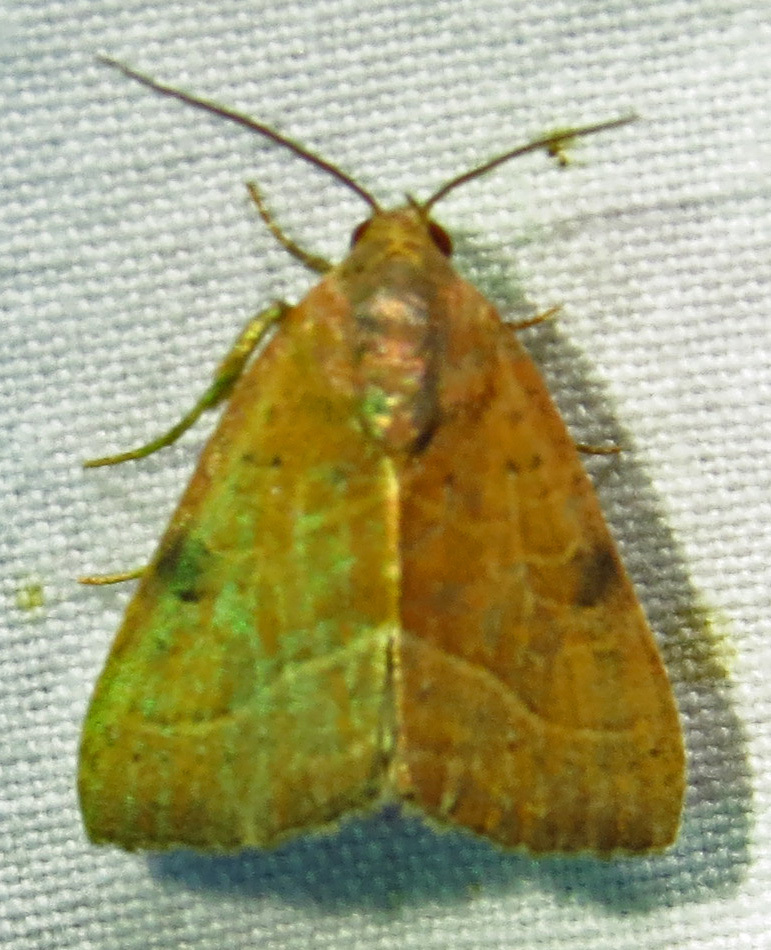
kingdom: Animalia
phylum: Arthropoda
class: Insecta
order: Lepidoptera
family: Noctuidae
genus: Galgula
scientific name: Galgula partita
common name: Wedgeling
